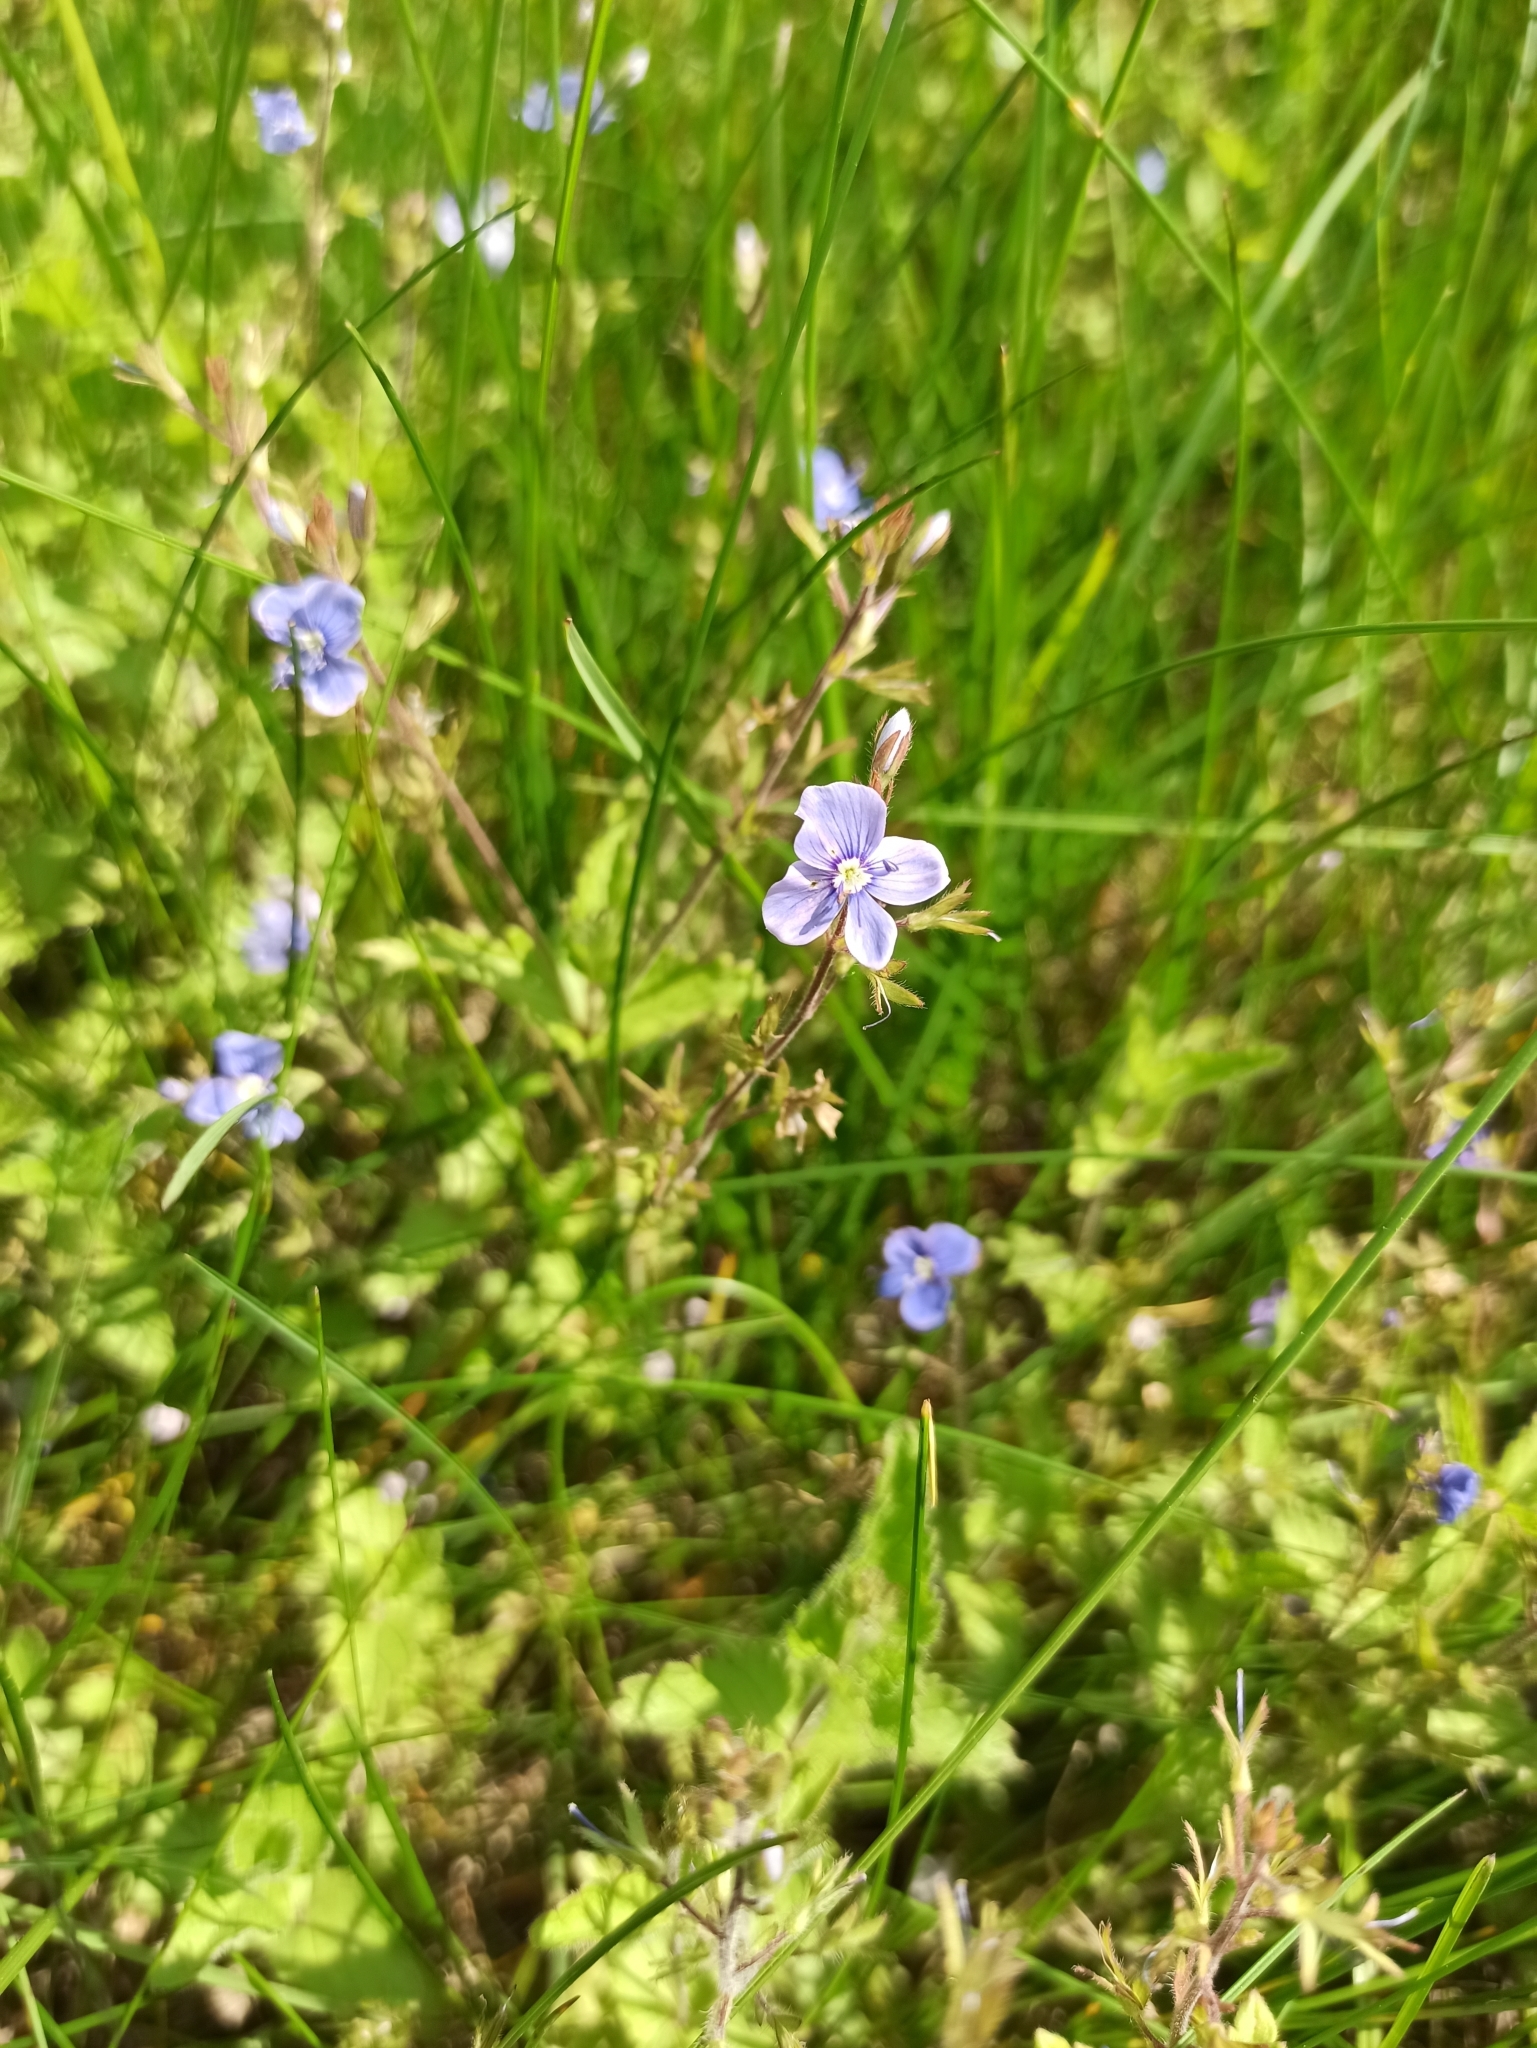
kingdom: Plantae
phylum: Tracheophyta
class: Magnoliopsida
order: Lamiales
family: Plantaginaceae
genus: Veronica
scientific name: Veronica chamaedrys
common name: Germander speedwell
